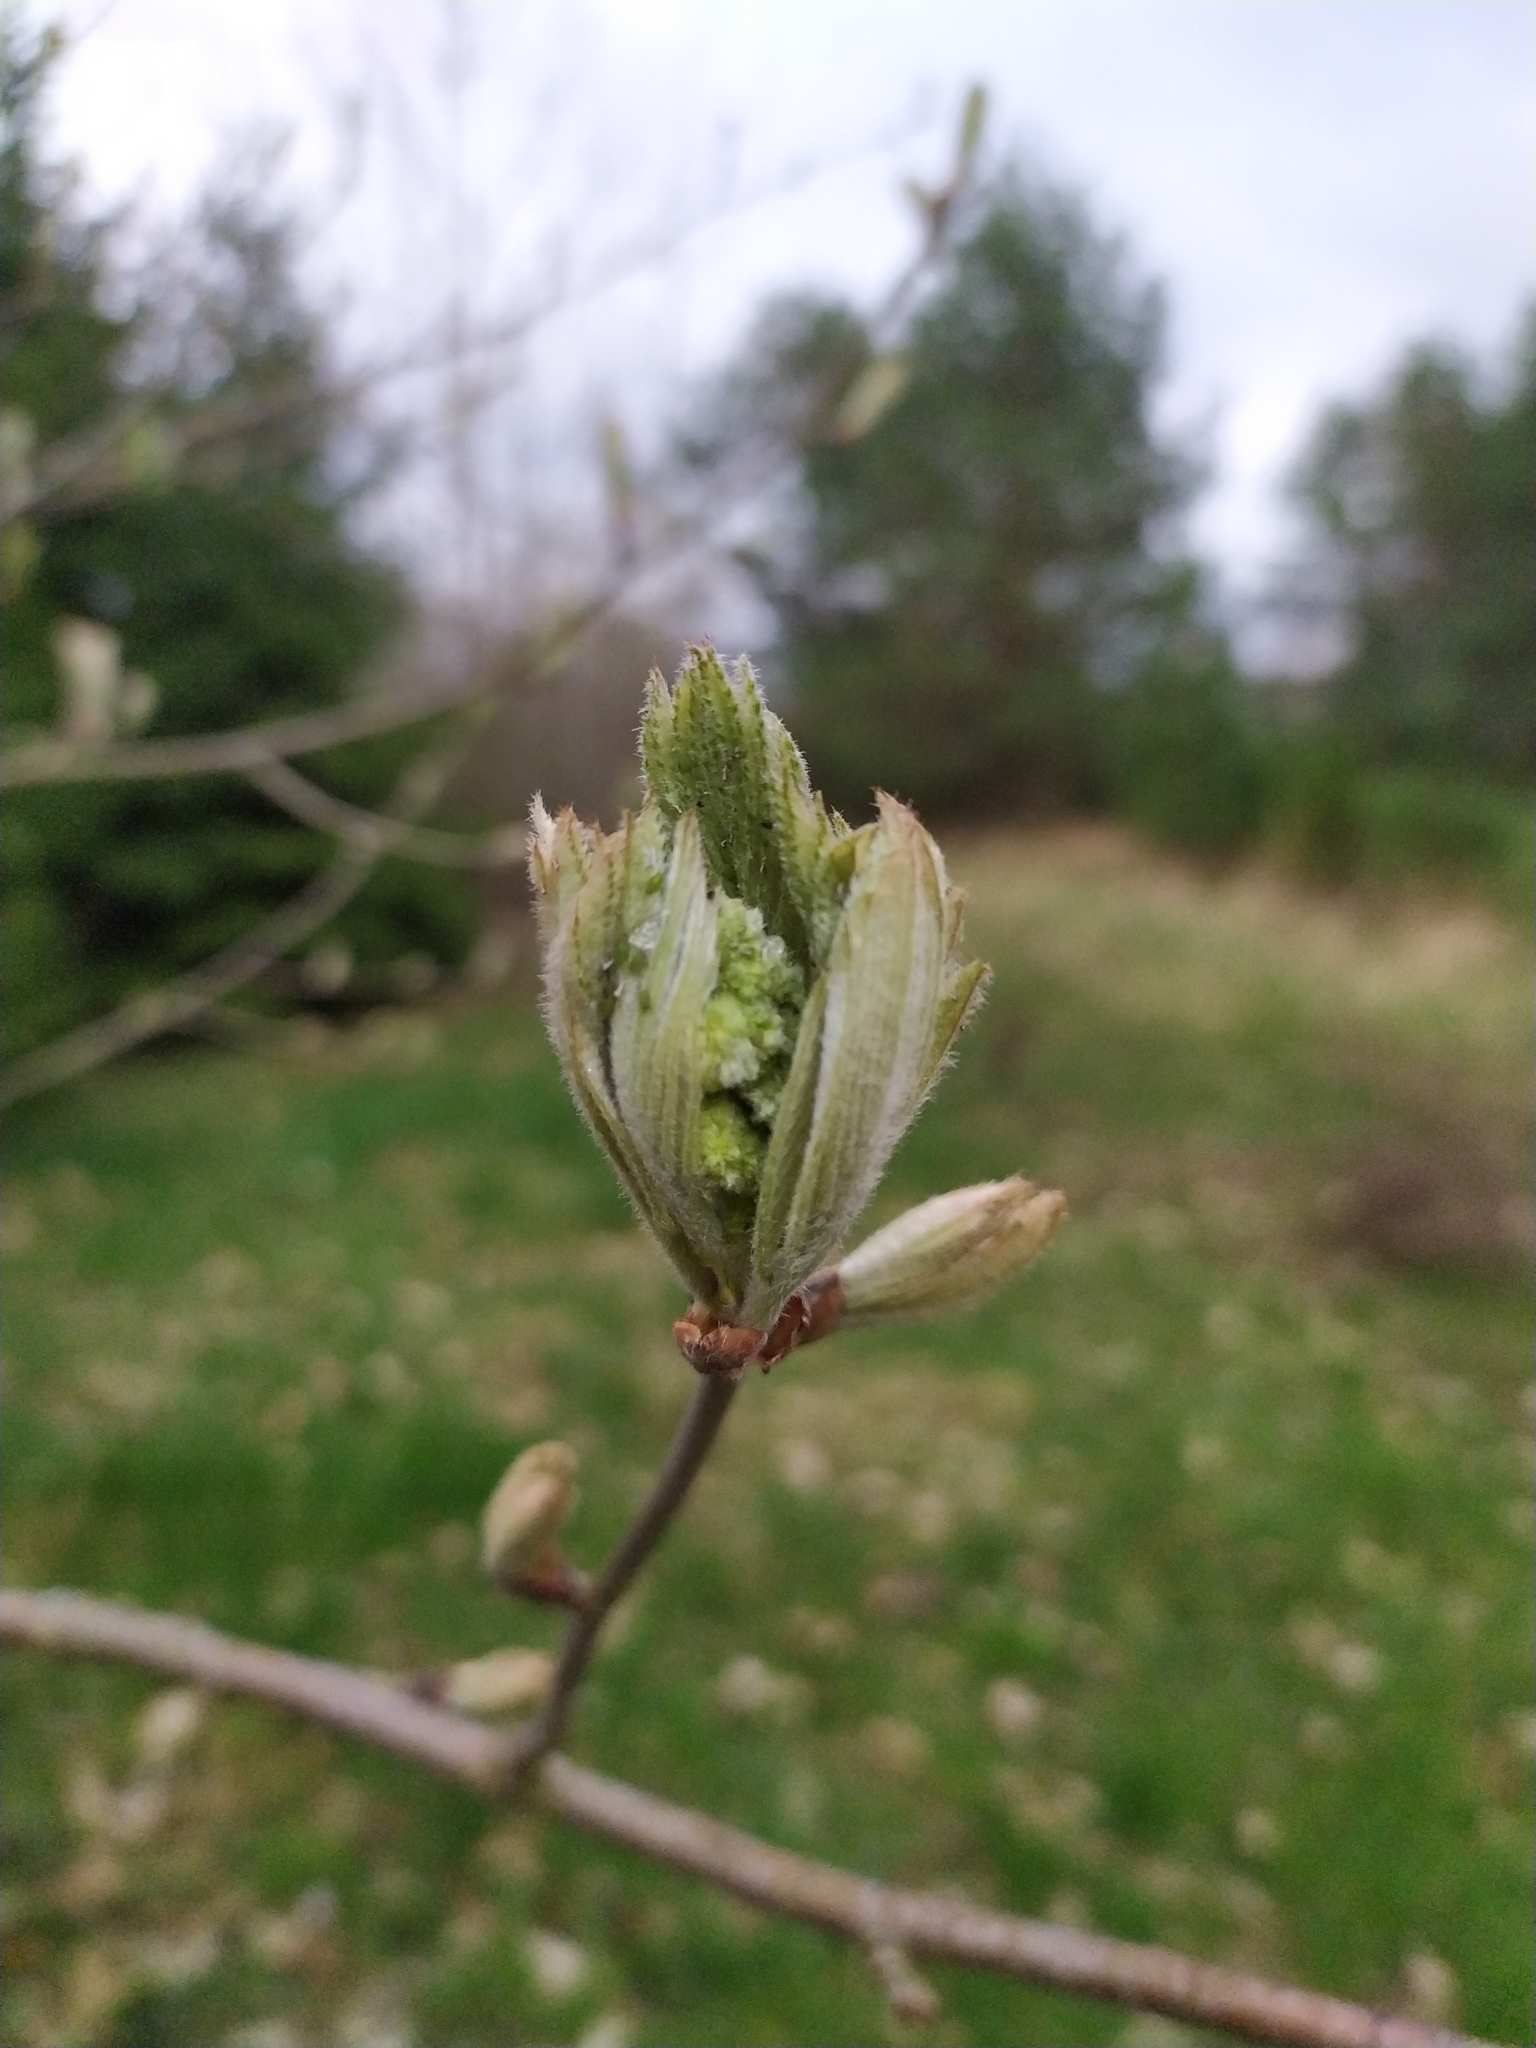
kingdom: Plantae
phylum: Tracheophyta
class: Magnoliopsida
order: Rosales
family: Rosaceae
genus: Sorbus
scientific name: Sorbus aucuparia
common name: Rowan
